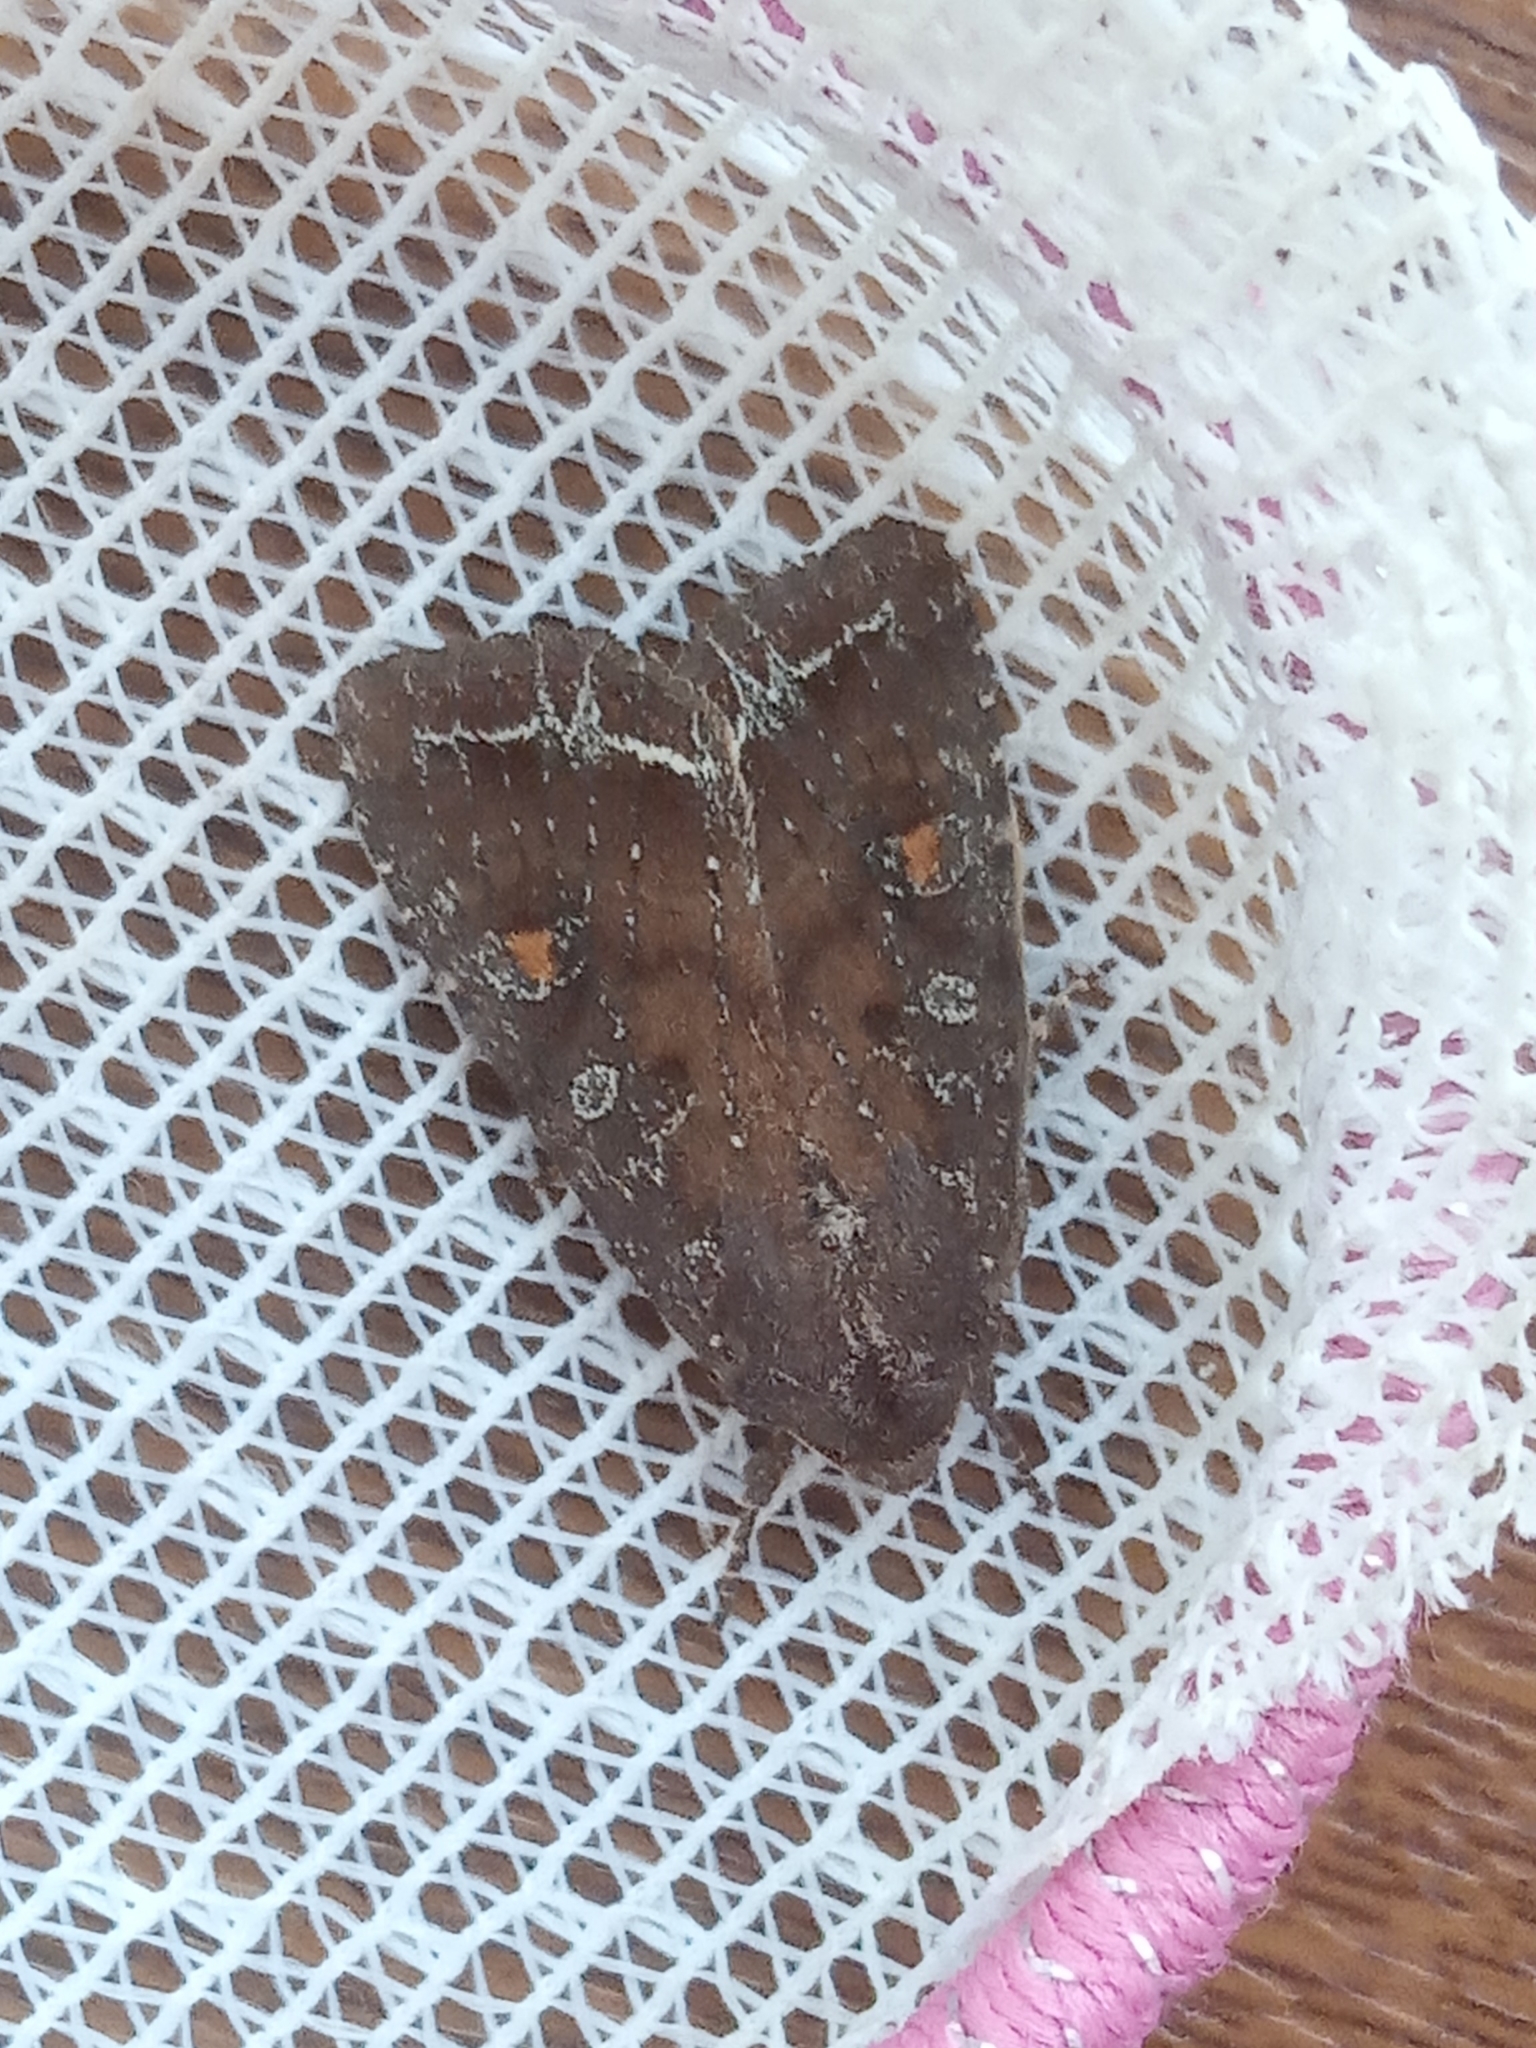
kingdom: Animalia
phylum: Arthropoda
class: Insecta
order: Lepidoptera
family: Noctuidae
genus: Lacanobia
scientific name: Lacanobia oleracea
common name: Bright-line brown-eye
